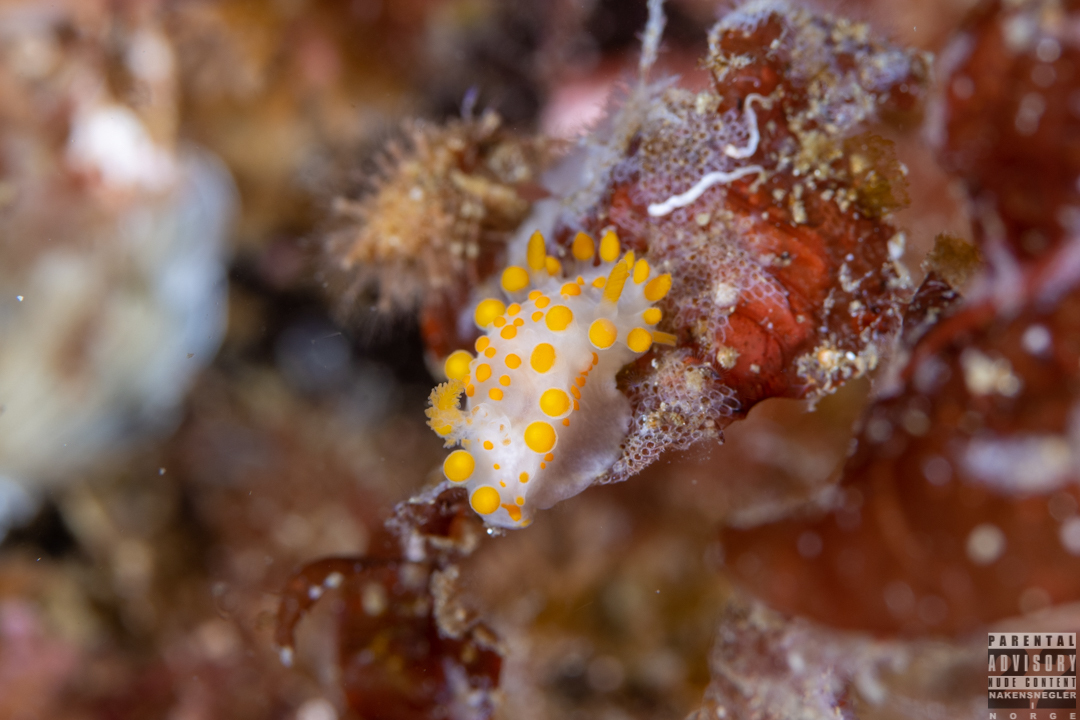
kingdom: Animalia
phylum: Mollusca
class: Gastropoda
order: Nudibranchia
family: Polyceridae
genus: Limacia
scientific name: Limacia clavigera
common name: Orange-clubbed sea slug
